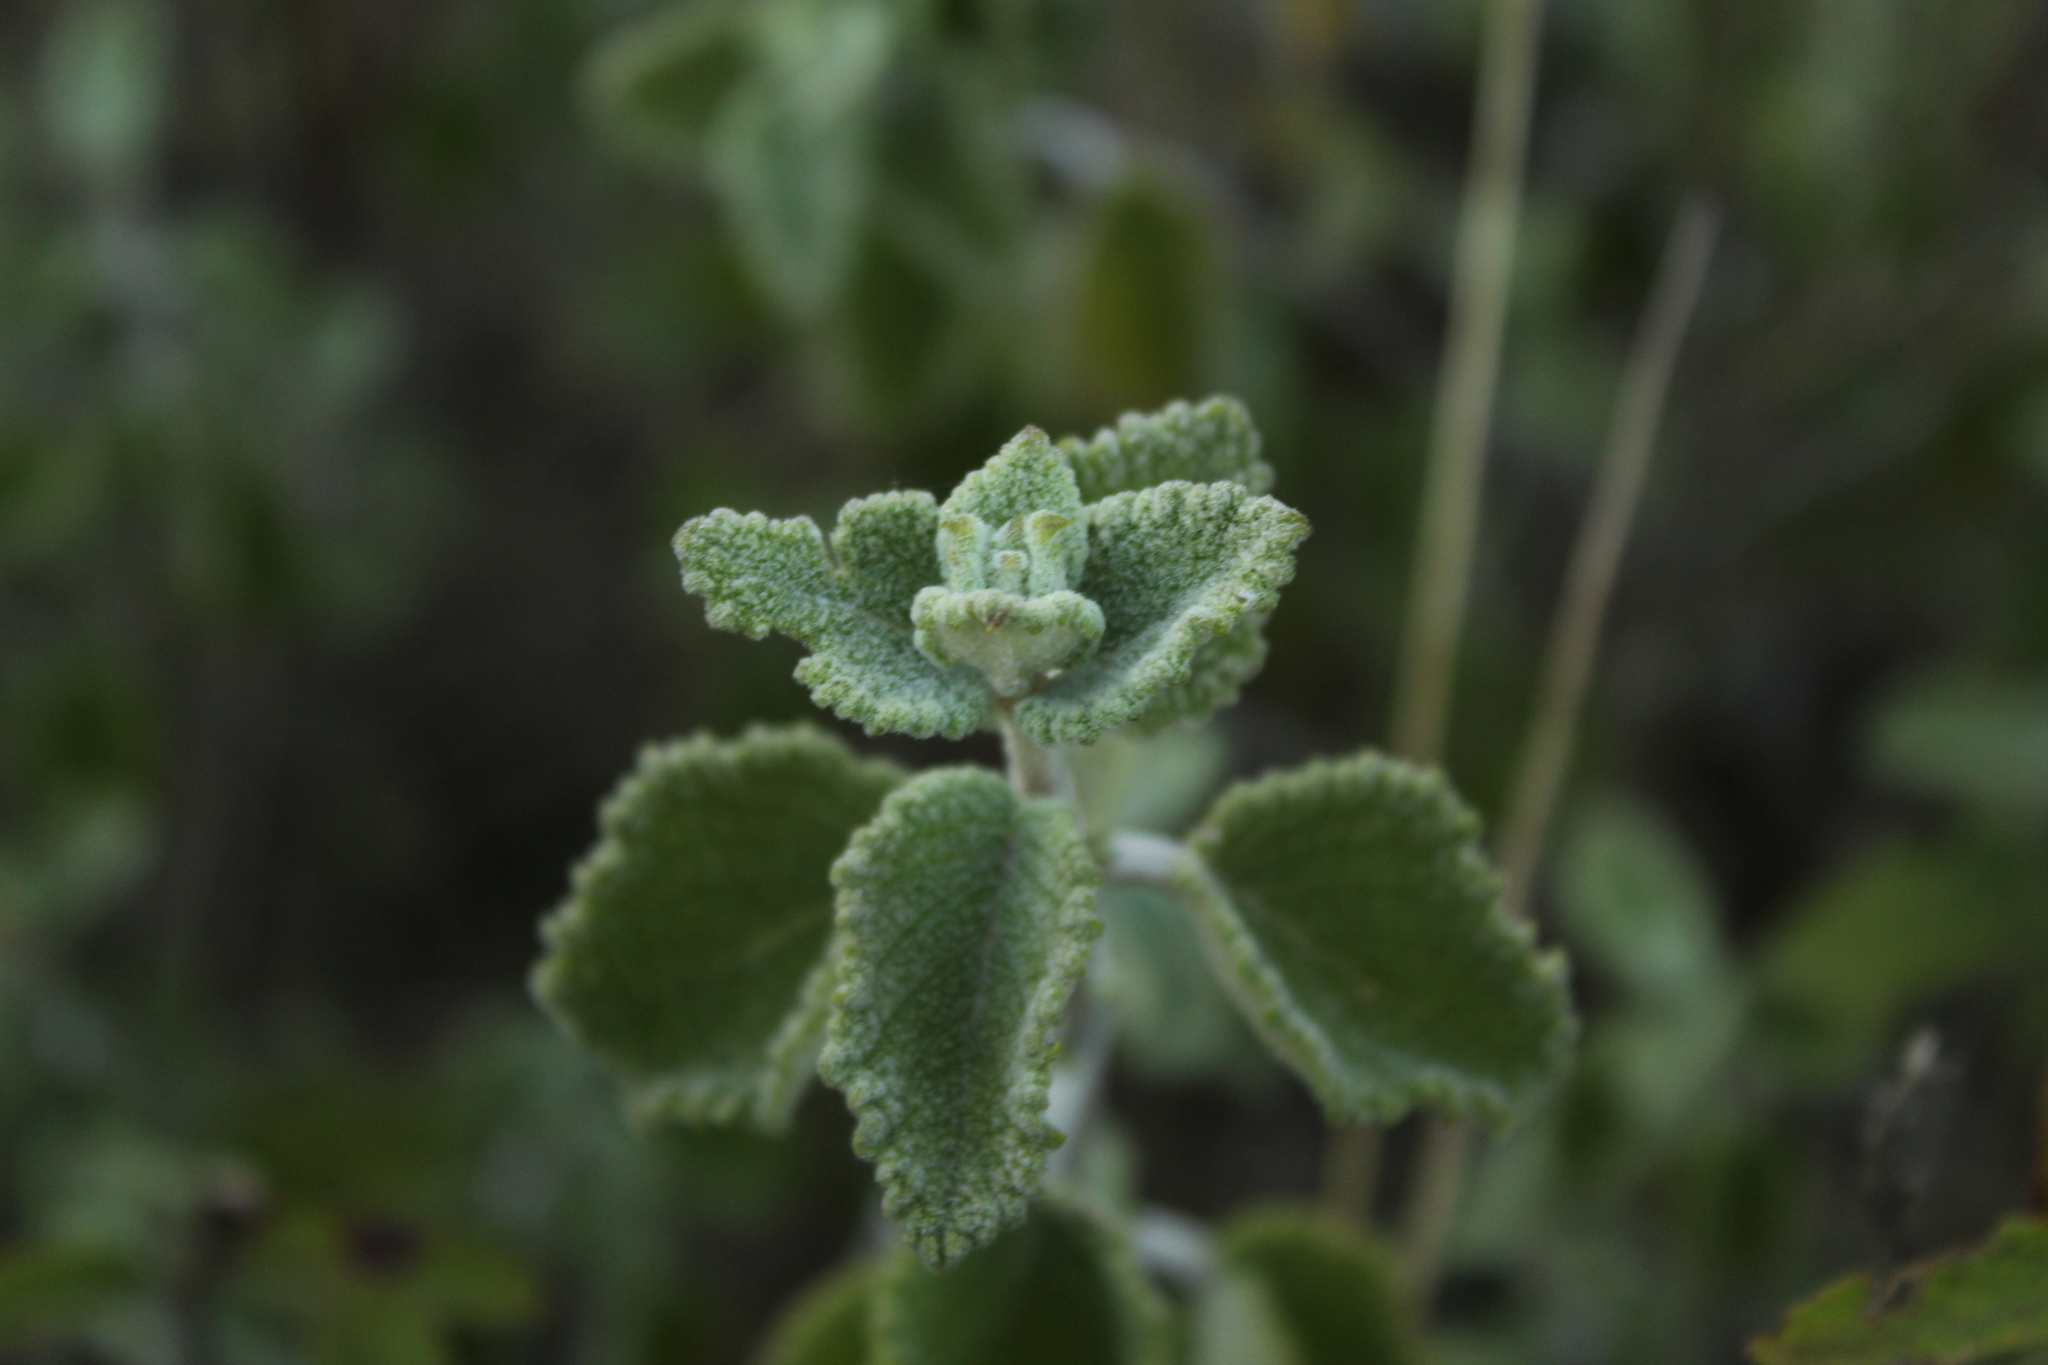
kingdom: Plantae
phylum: Tracheophyta
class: Magnoliopsida
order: Lamiales
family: Lamiaceae
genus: Mesosphaerum
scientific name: Mesosphaerum perbullatum
